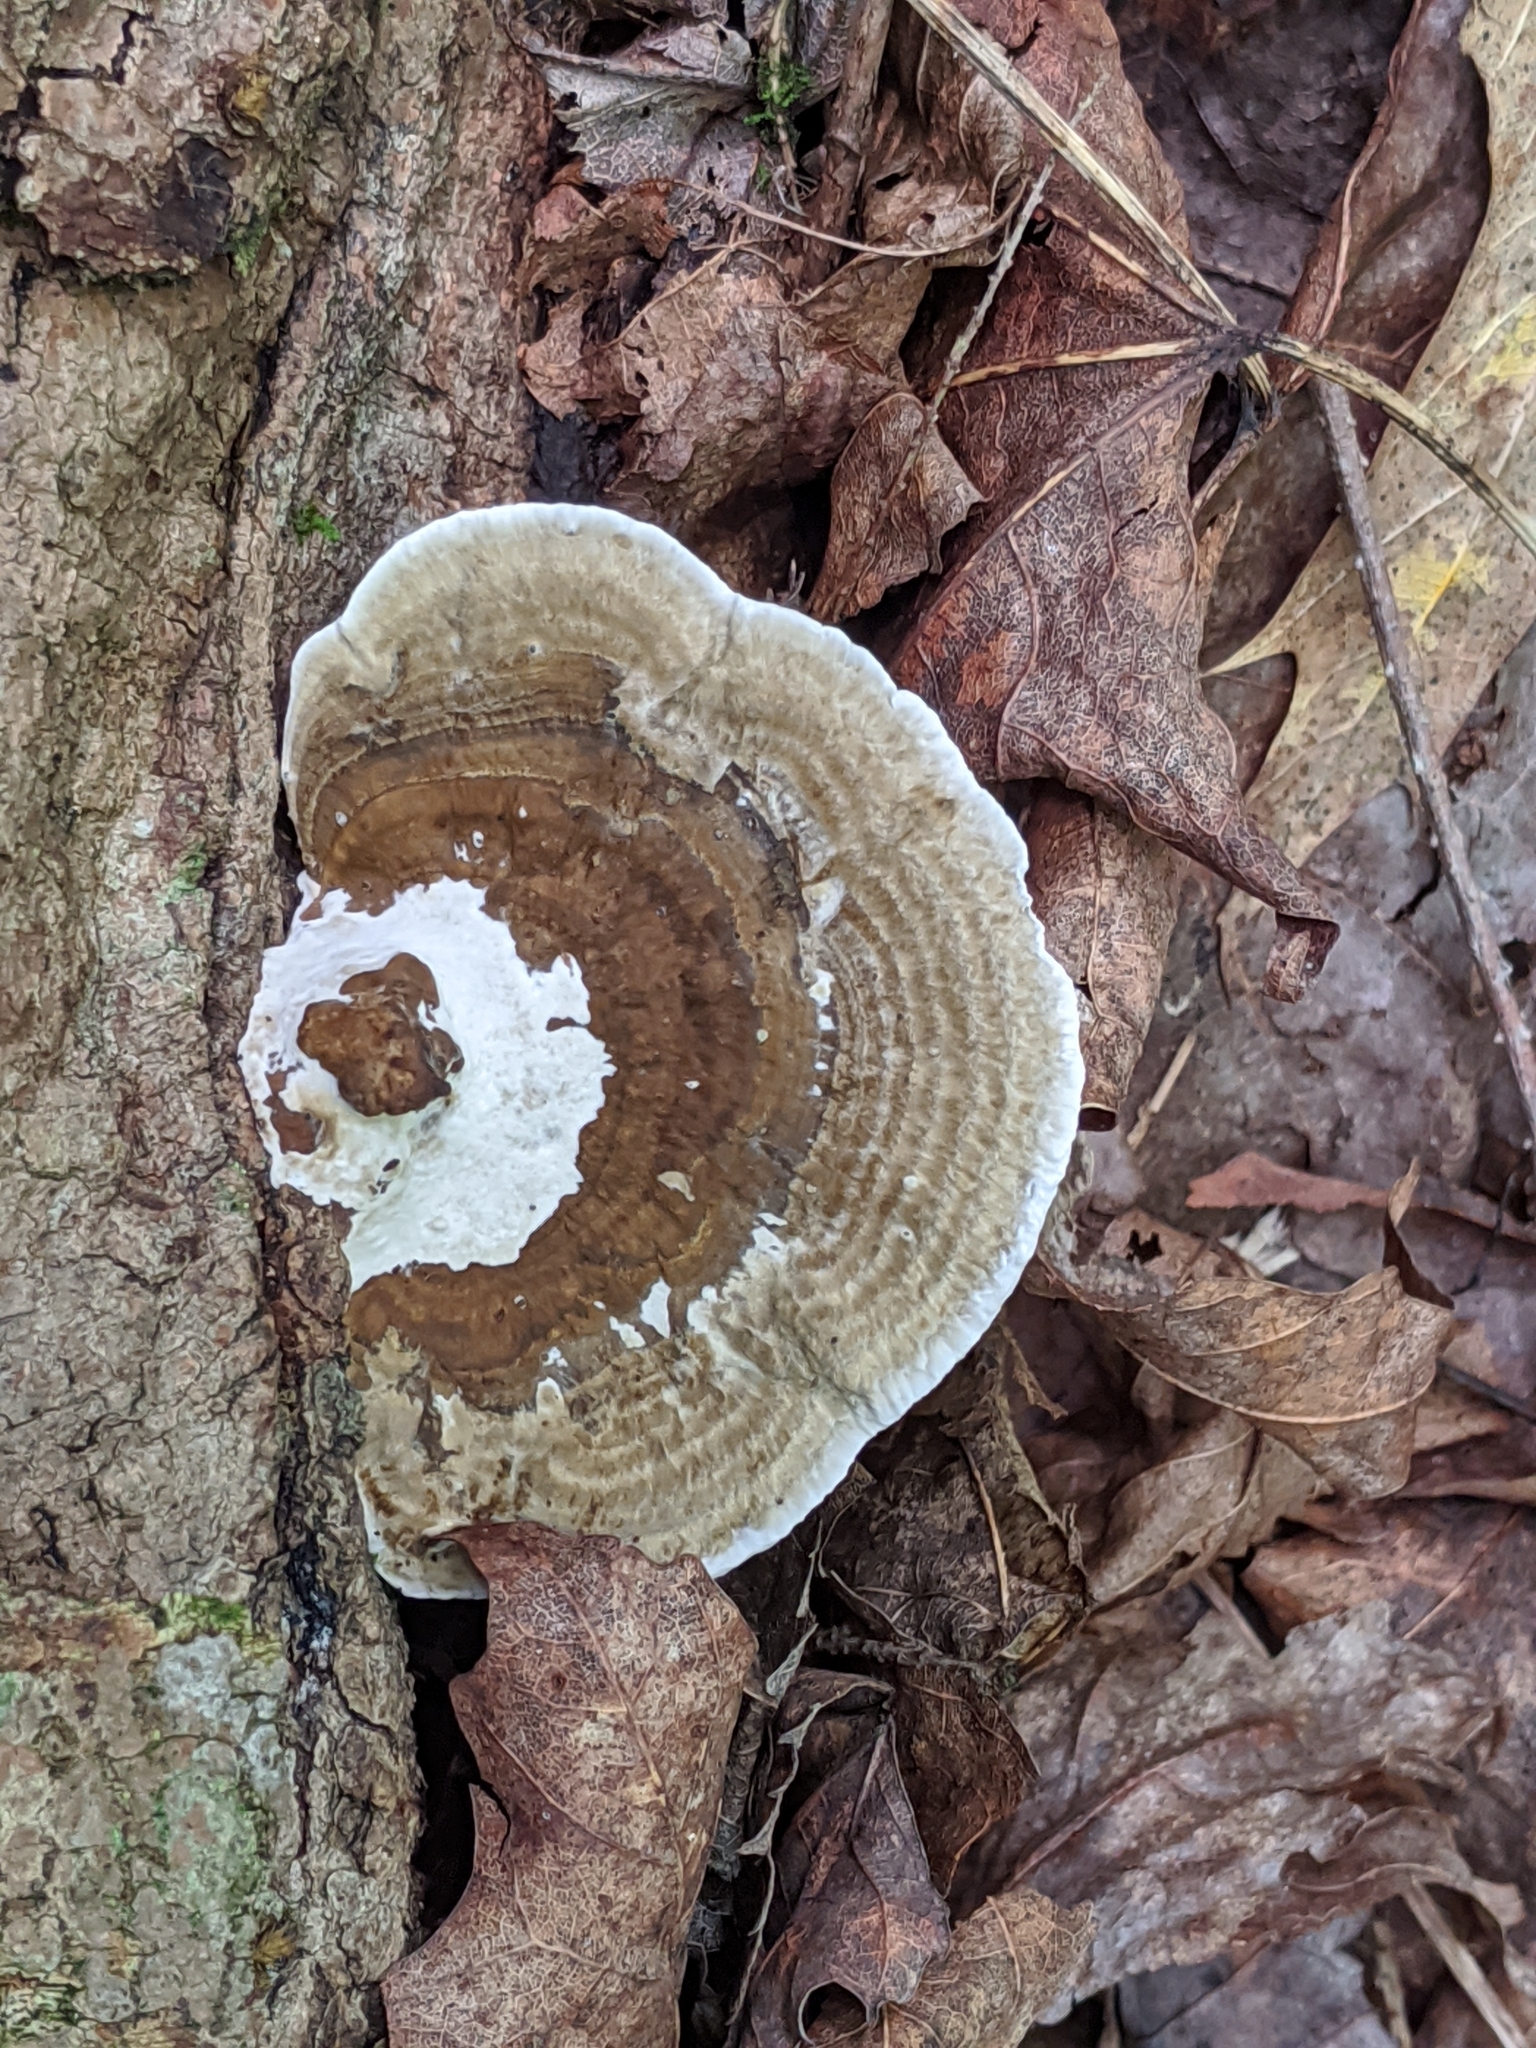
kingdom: Fungi
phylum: Basidiomycota
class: Agaricomycetes
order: Polyporales
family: Polyporaceae
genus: Daedaleopsis
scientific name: Daedaleopsis confragosa
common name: Blushing bracket
